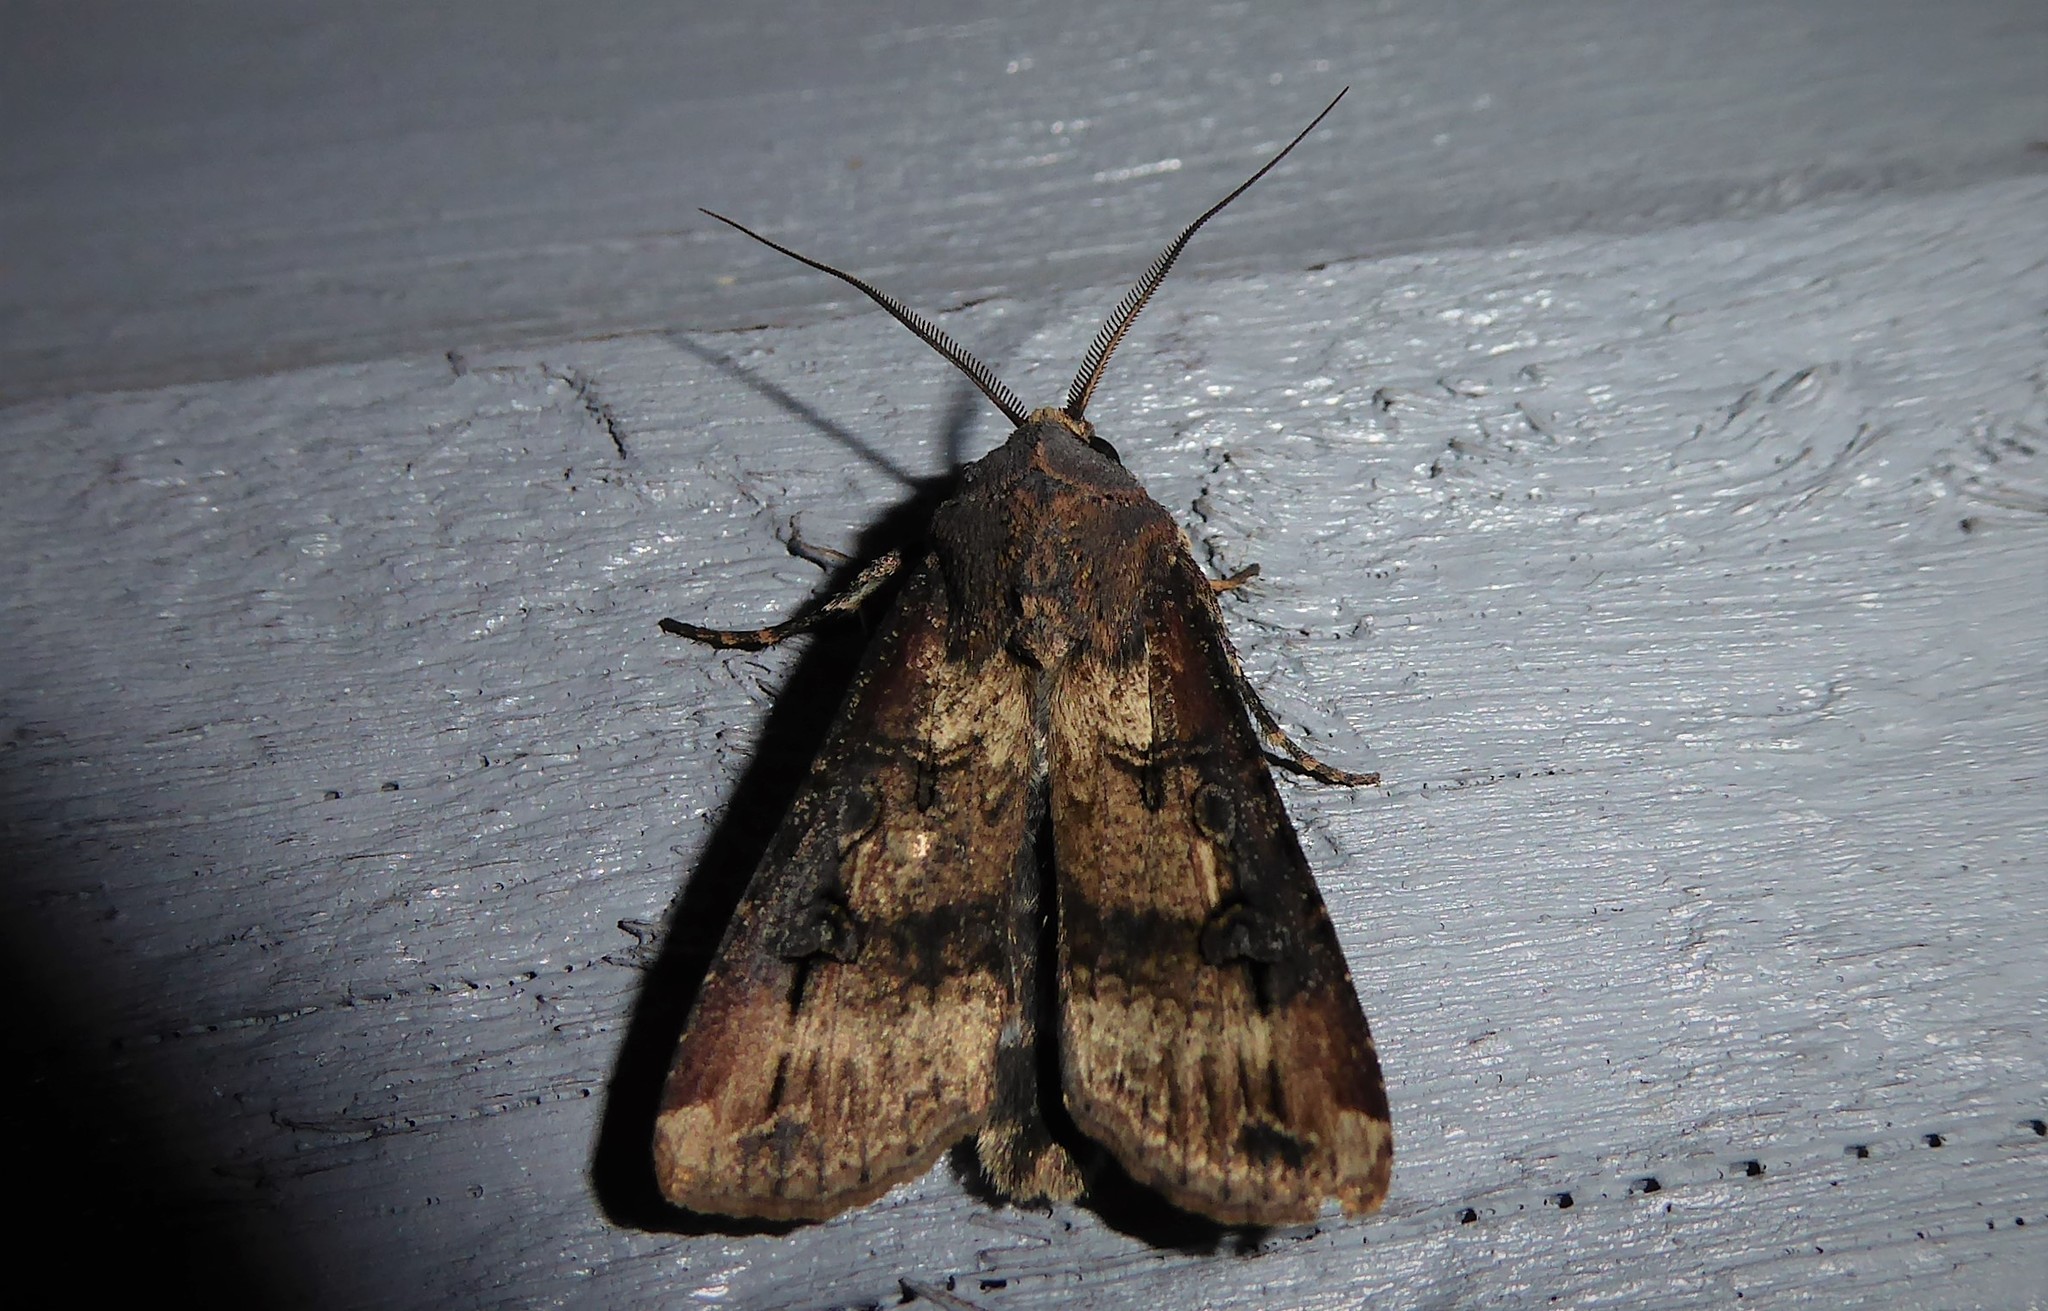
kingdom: Animalia
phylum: Arthropoda
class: Insecta
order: Lepidoptera
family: Noctuidae
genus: Agrotis
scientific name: Agrotis ipsilon
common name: Dark sword-grass
